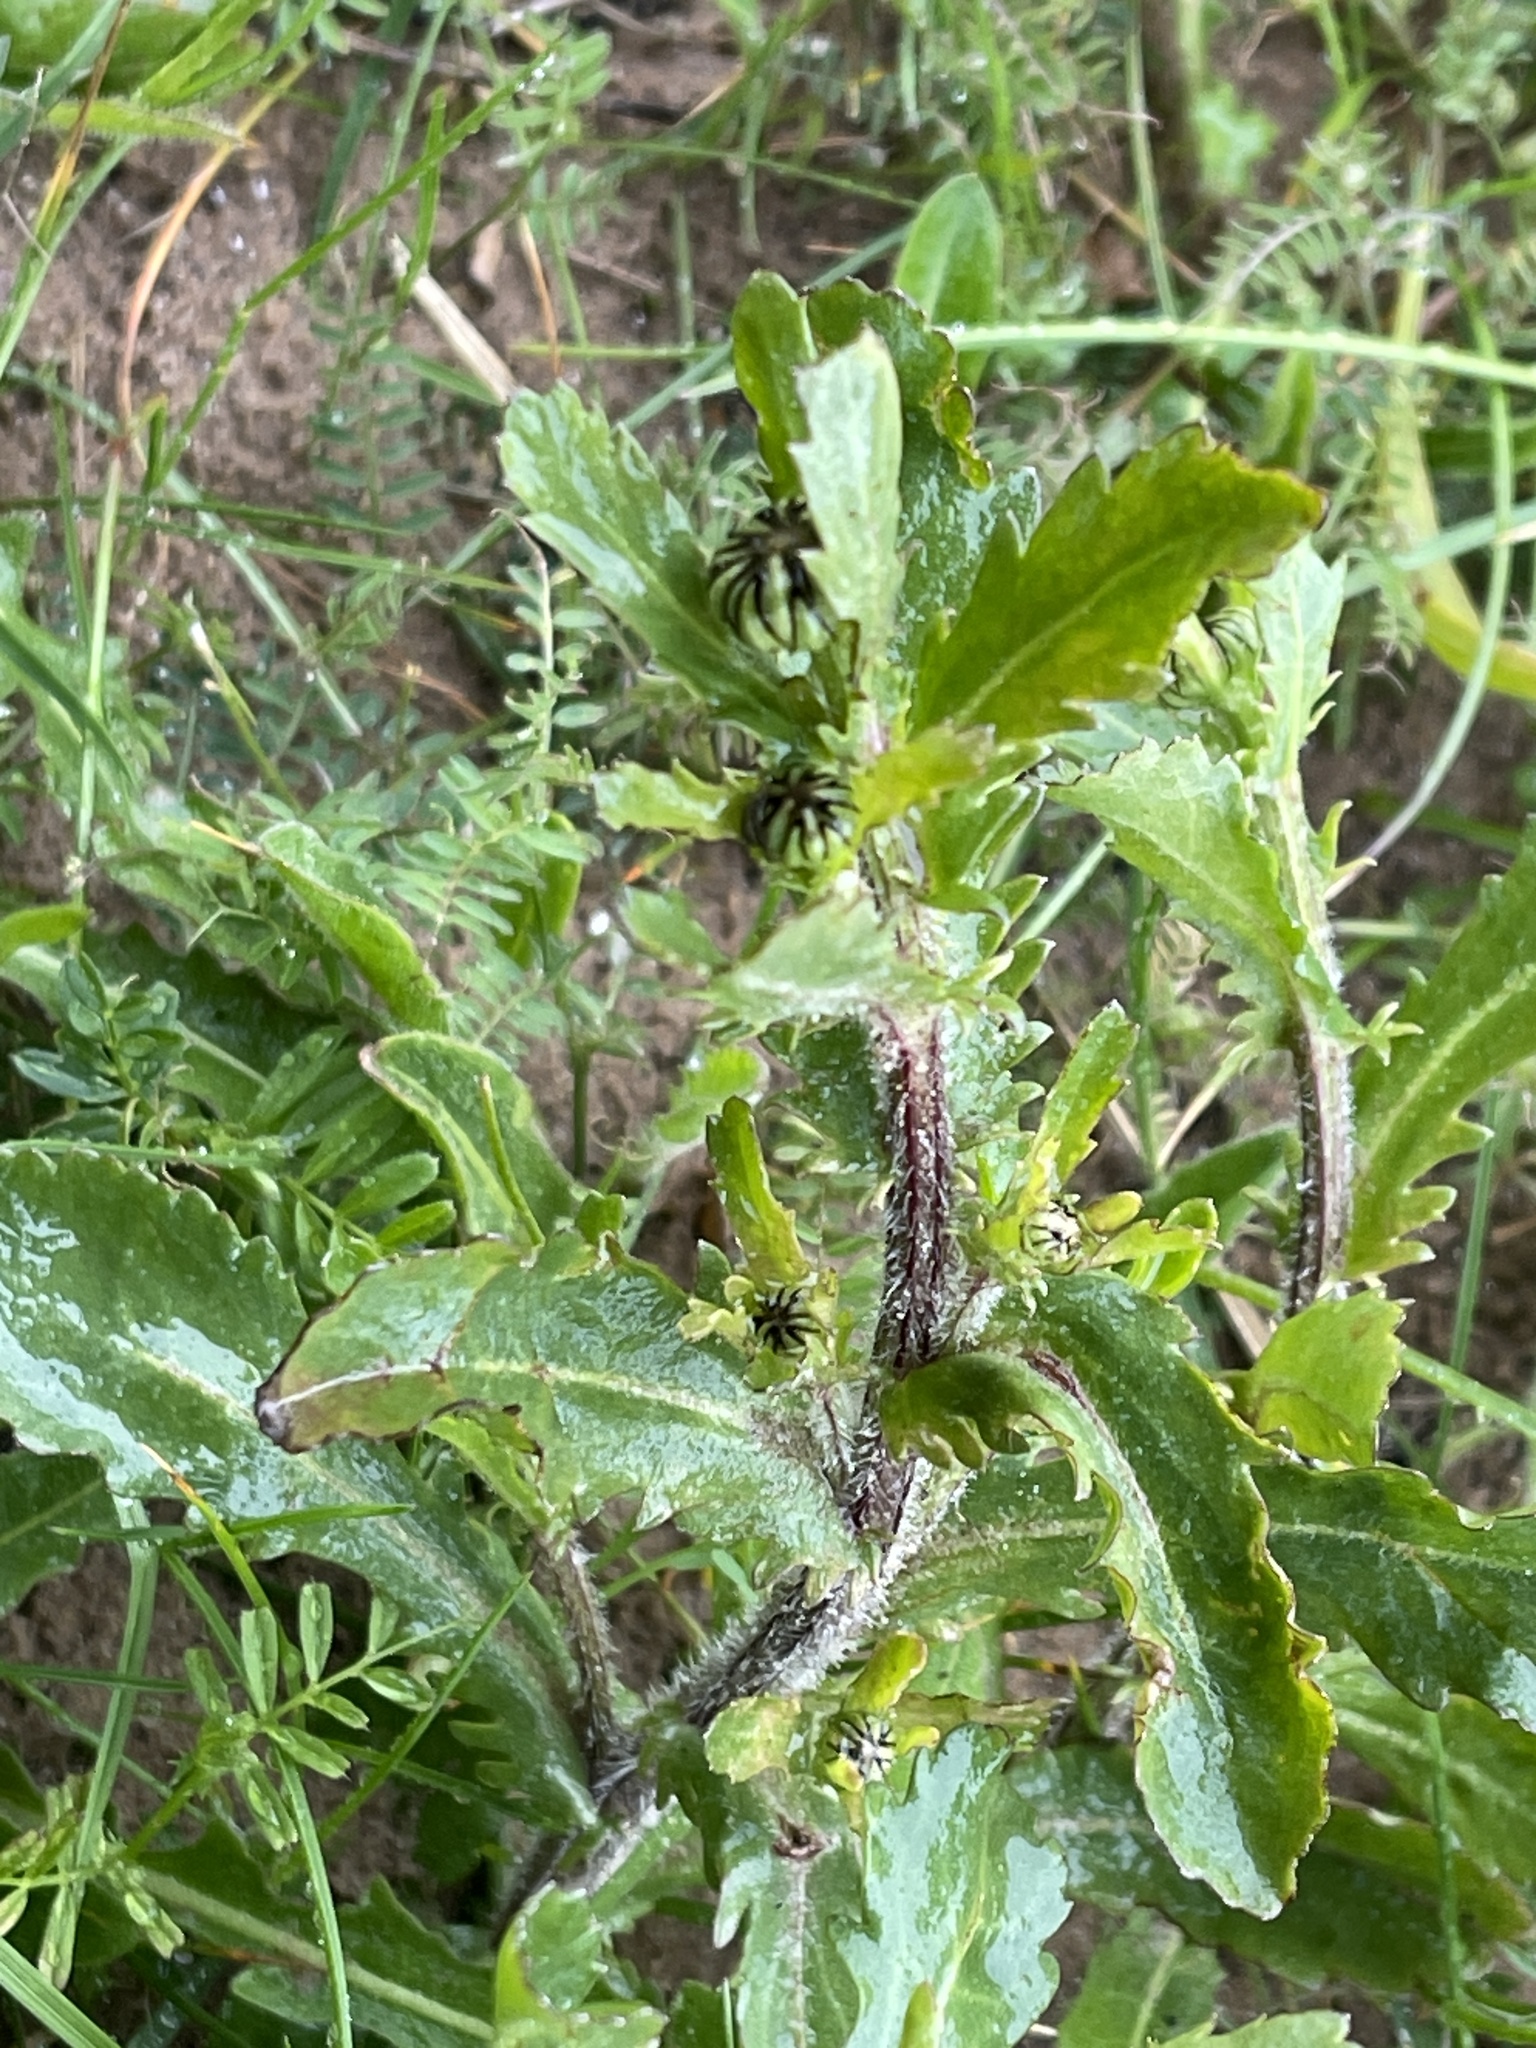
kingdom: Plantae
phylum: Tracheophyta
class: Magnoliopsida
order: Asterales
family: Asteraceae
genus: Leucanthemum
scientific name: Leucanthemum vulgare
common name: Oxeye daisy
